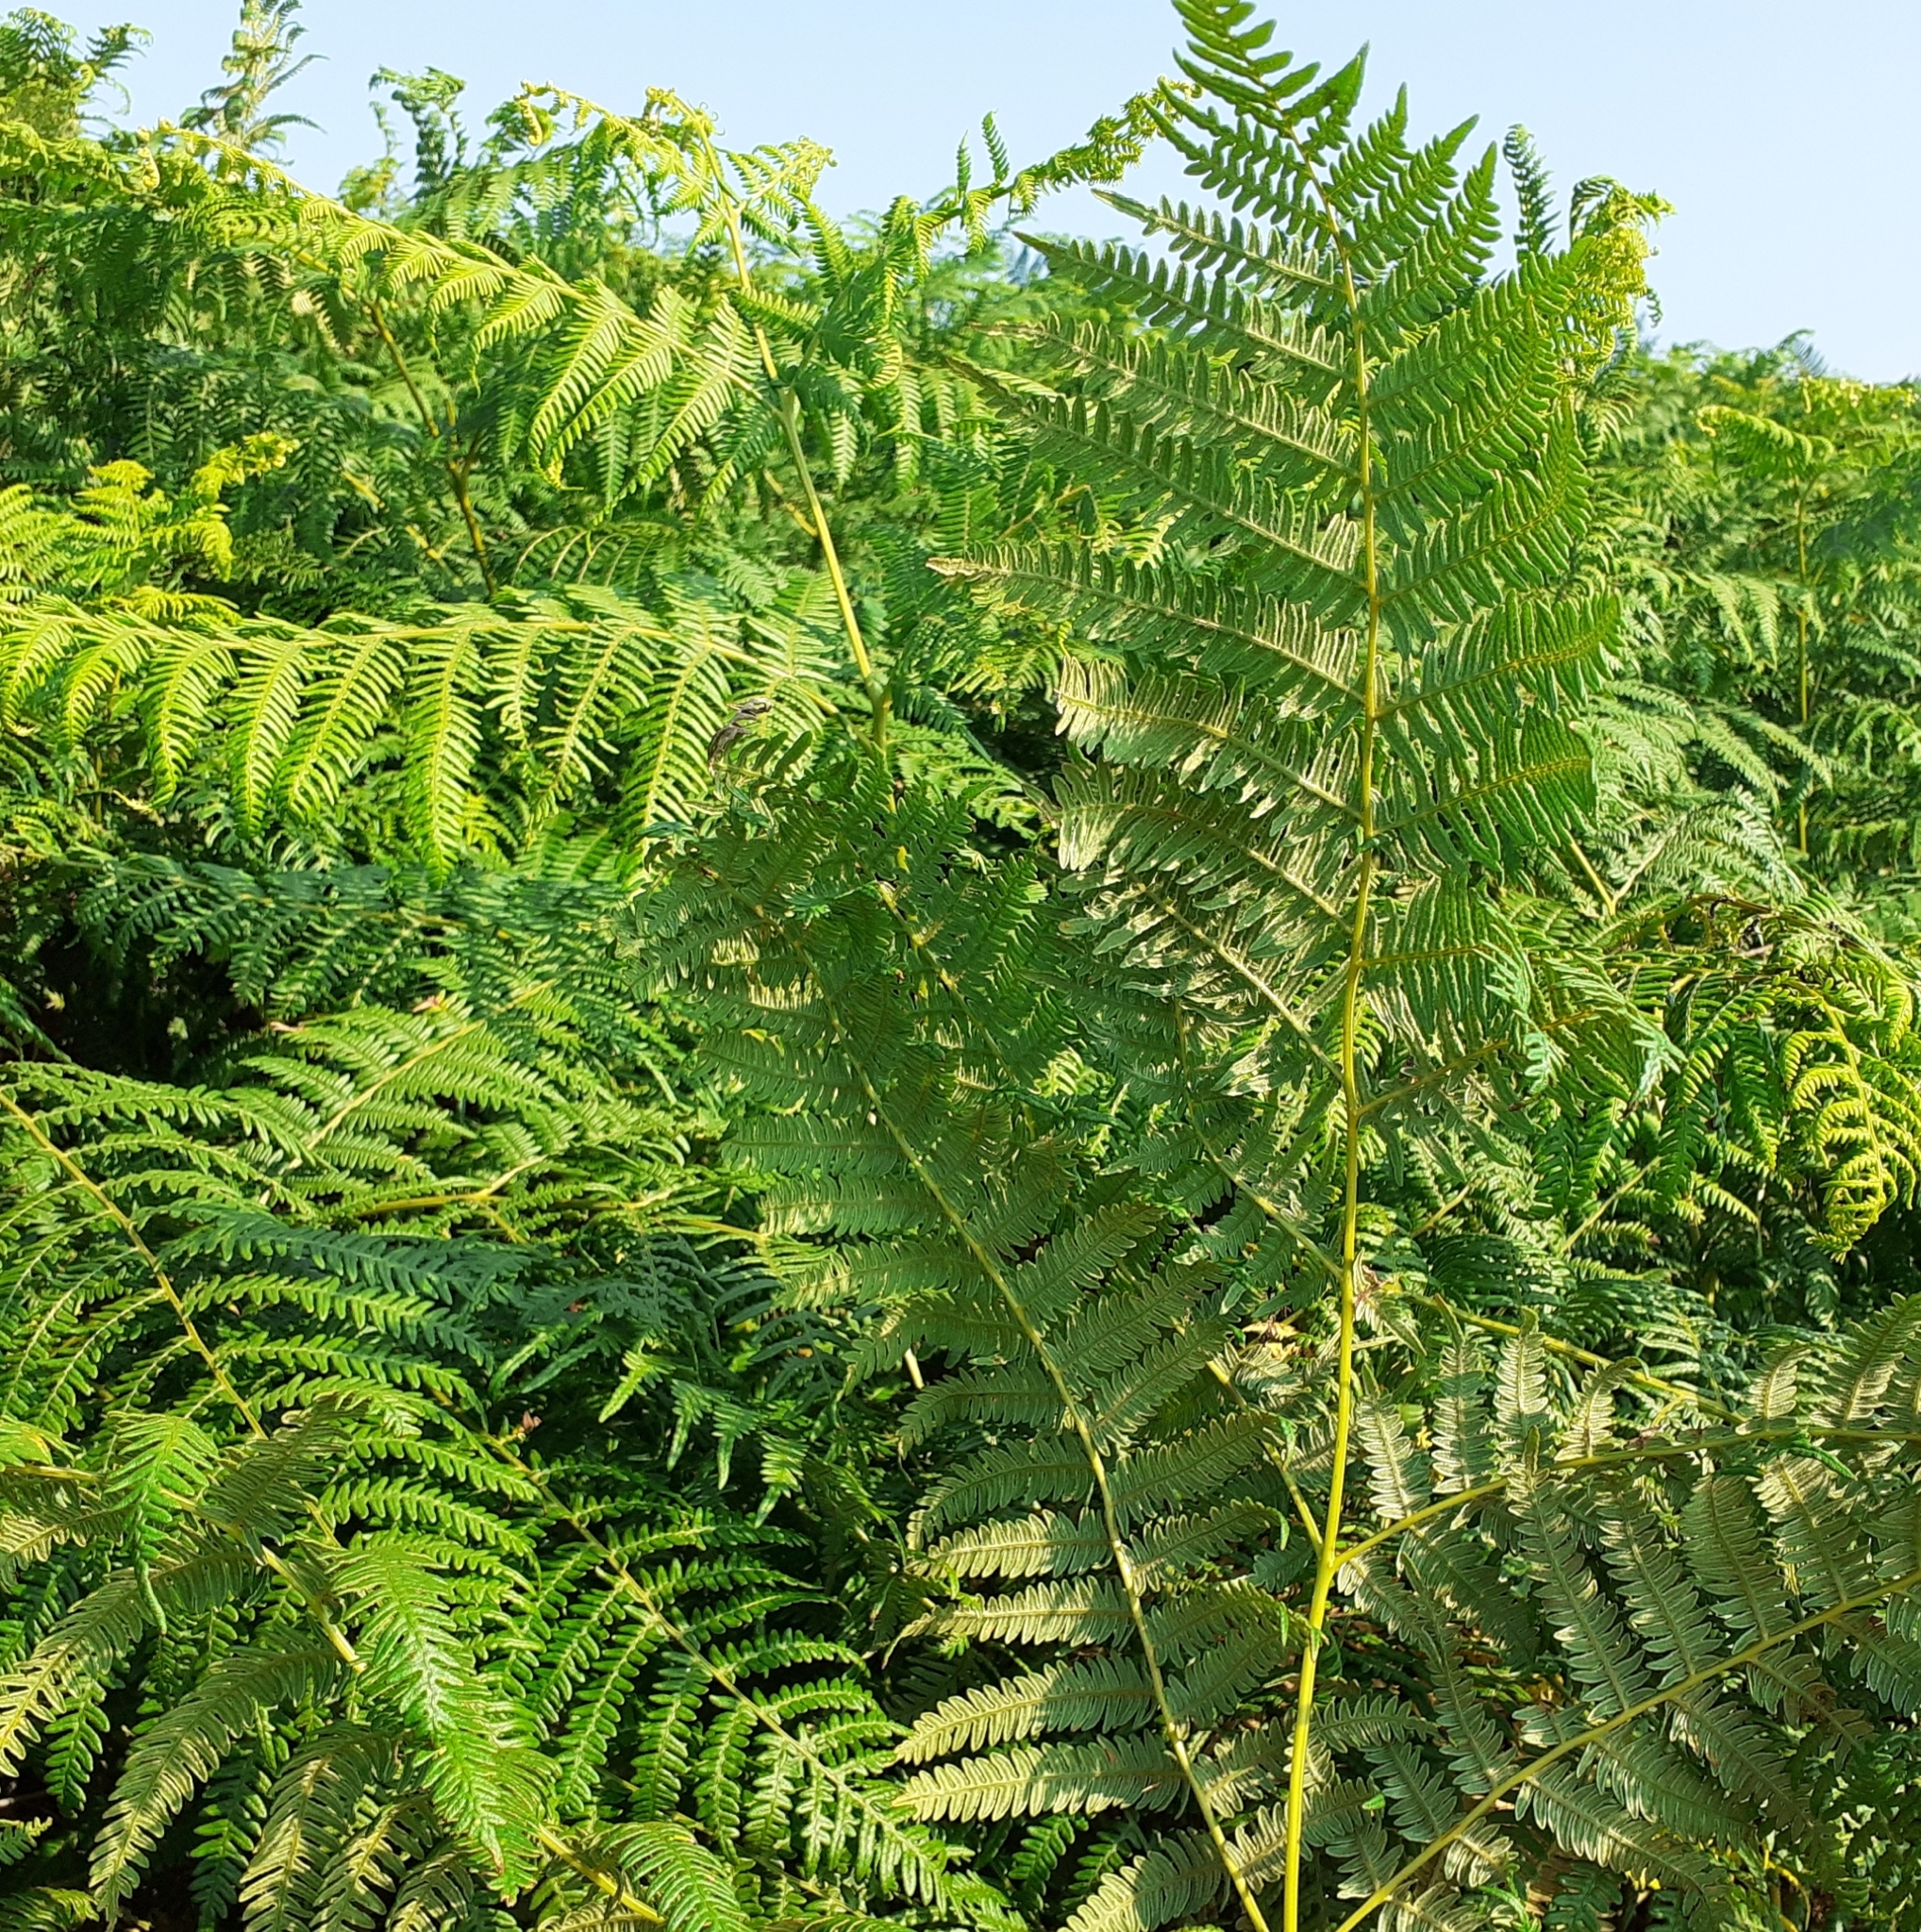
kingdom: Plantae
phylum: Tracheophyta
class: Polypodiopsida
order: Polypodiales
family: Dennstaedtiaceae
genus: Pteridium
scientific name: Pteridium aquilinum
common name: Bracken
